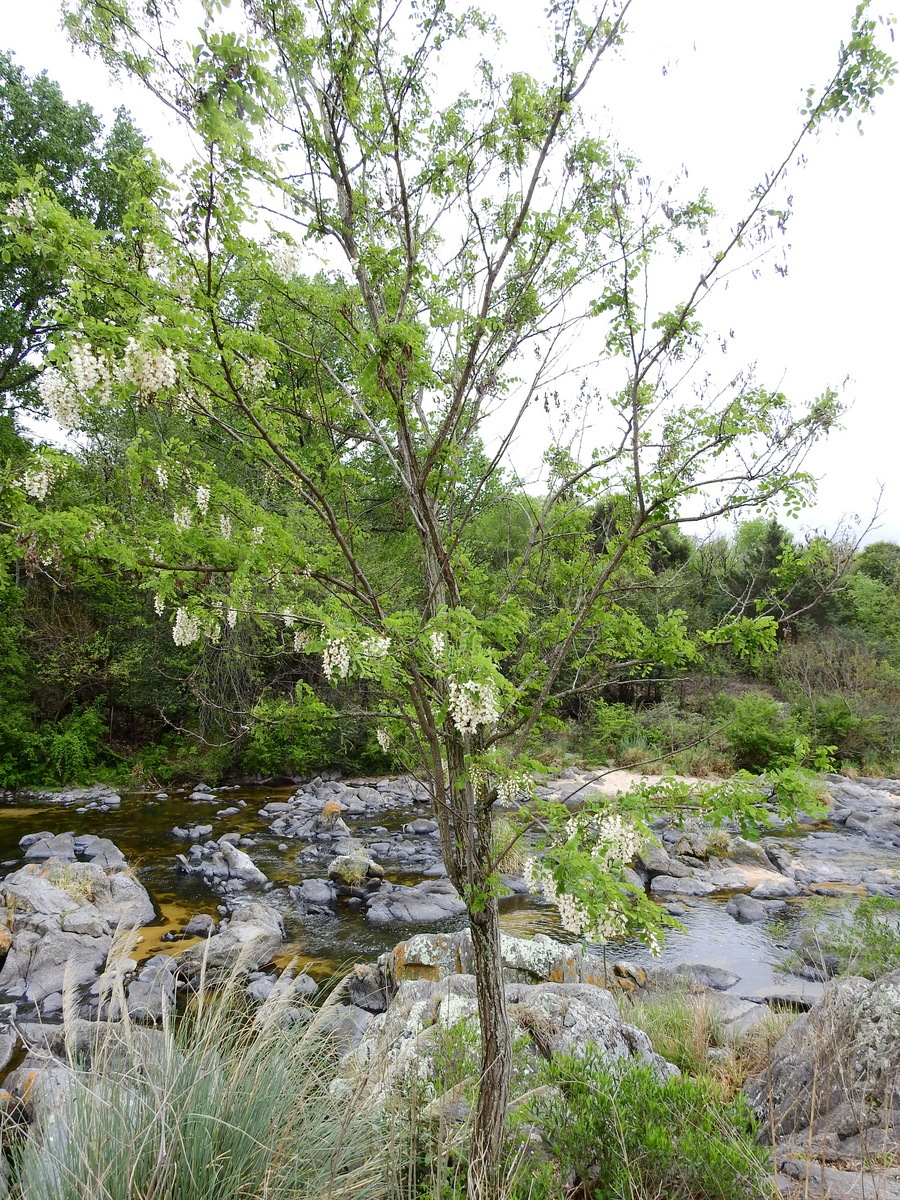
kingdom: Plantae
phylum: Tracheophyta
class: Magnoliopsida
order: Fabales
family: Fabaceae
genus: Robinia
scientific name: Robinia pseudoacacia
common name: Black locust
